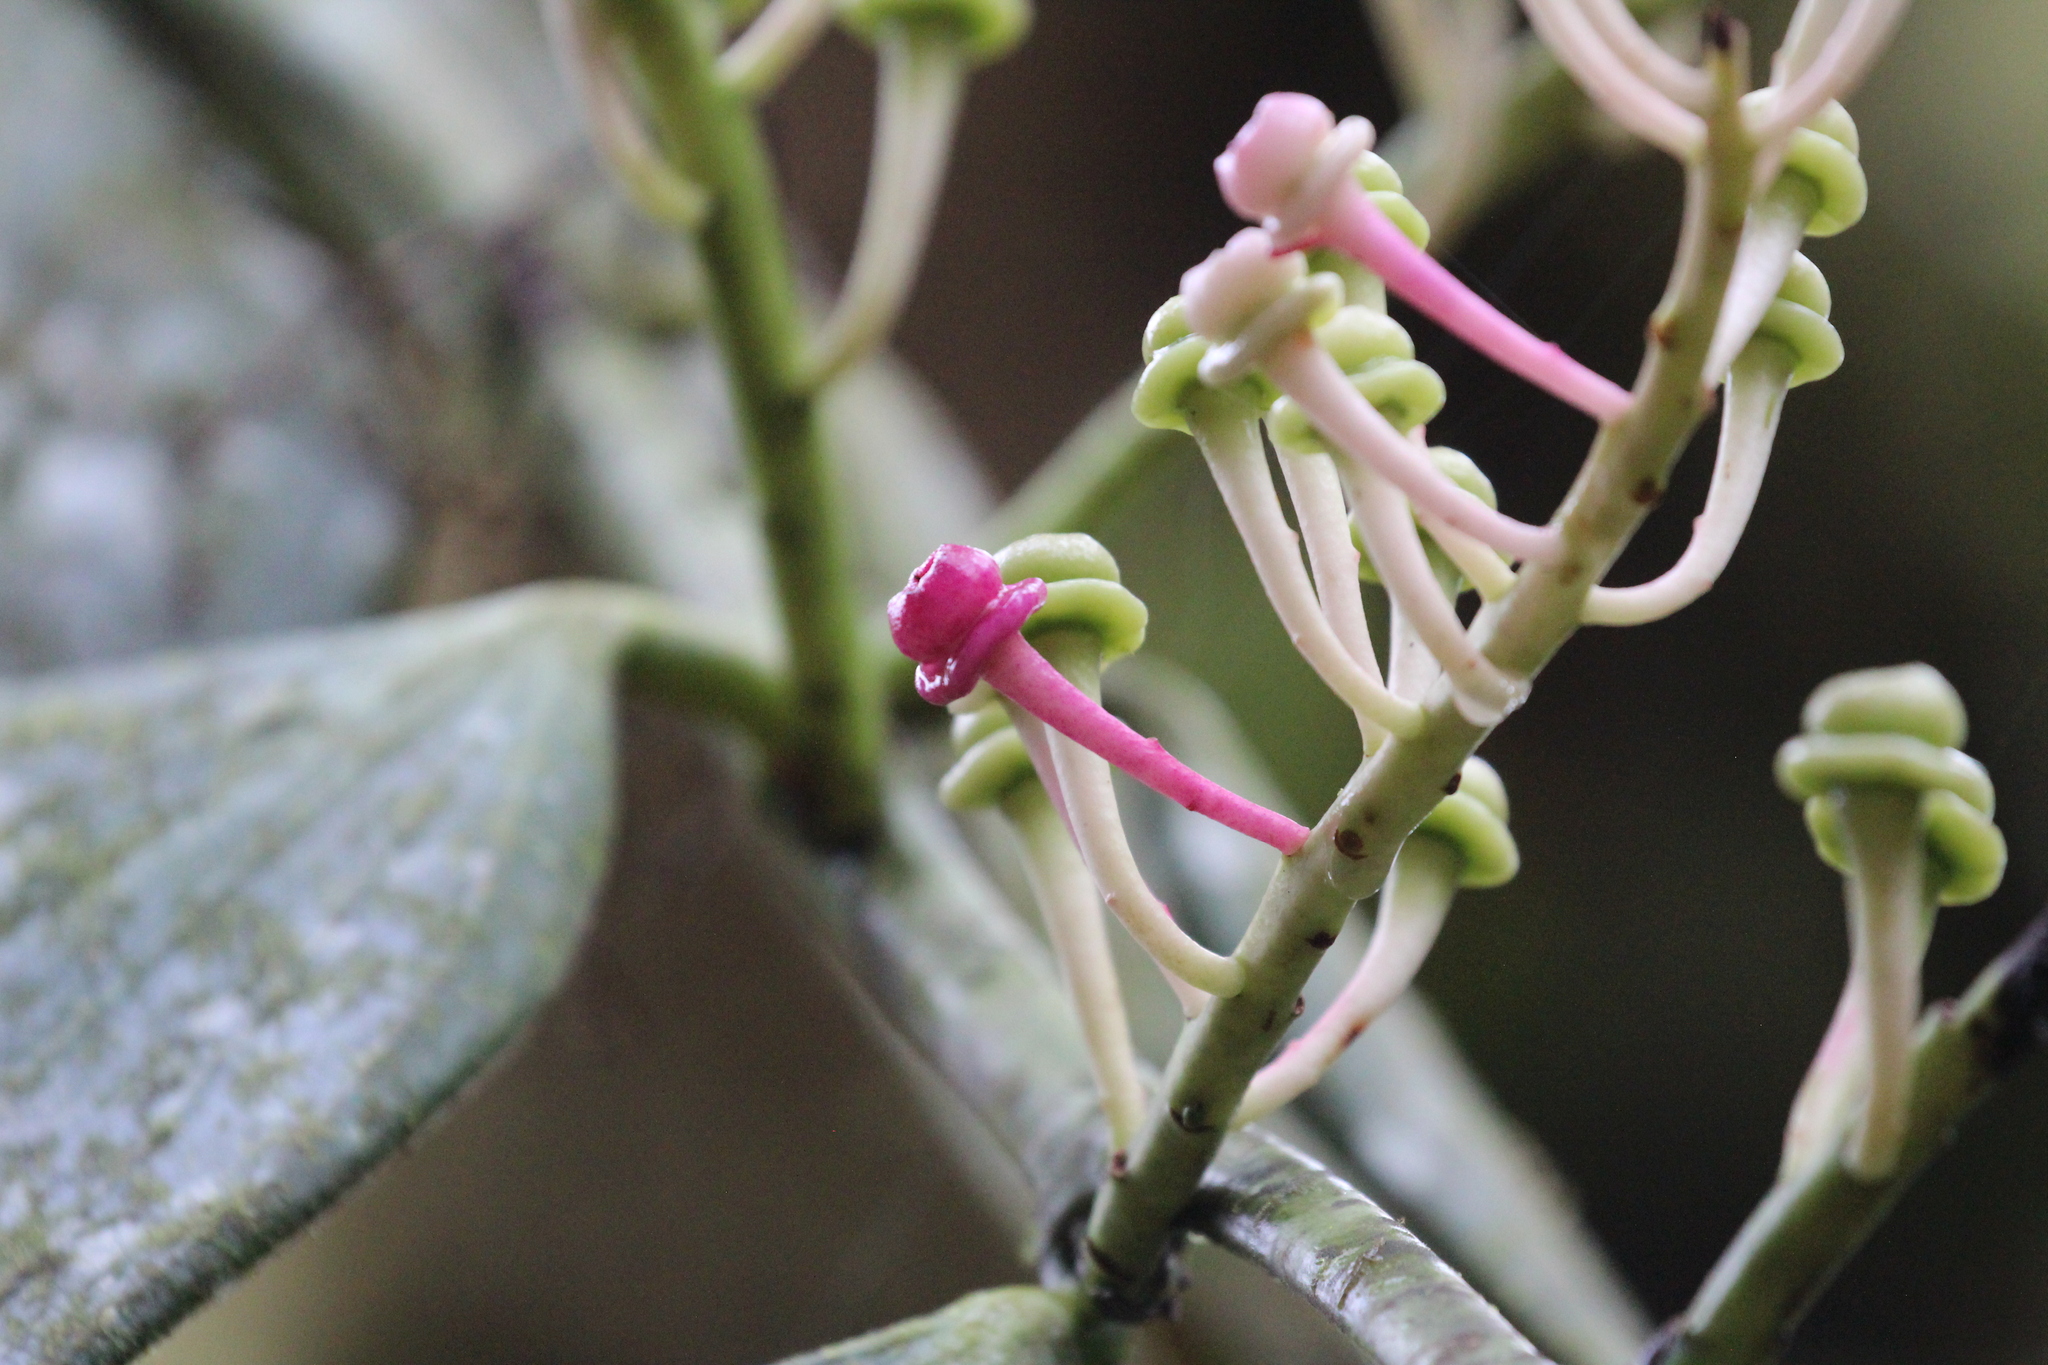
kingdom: Plantae
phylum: Tracheophyta
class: Magnoliopsida
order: Ericales
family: Ericaceae
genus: Cavendishia
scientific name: Cavendishia grandifolia
